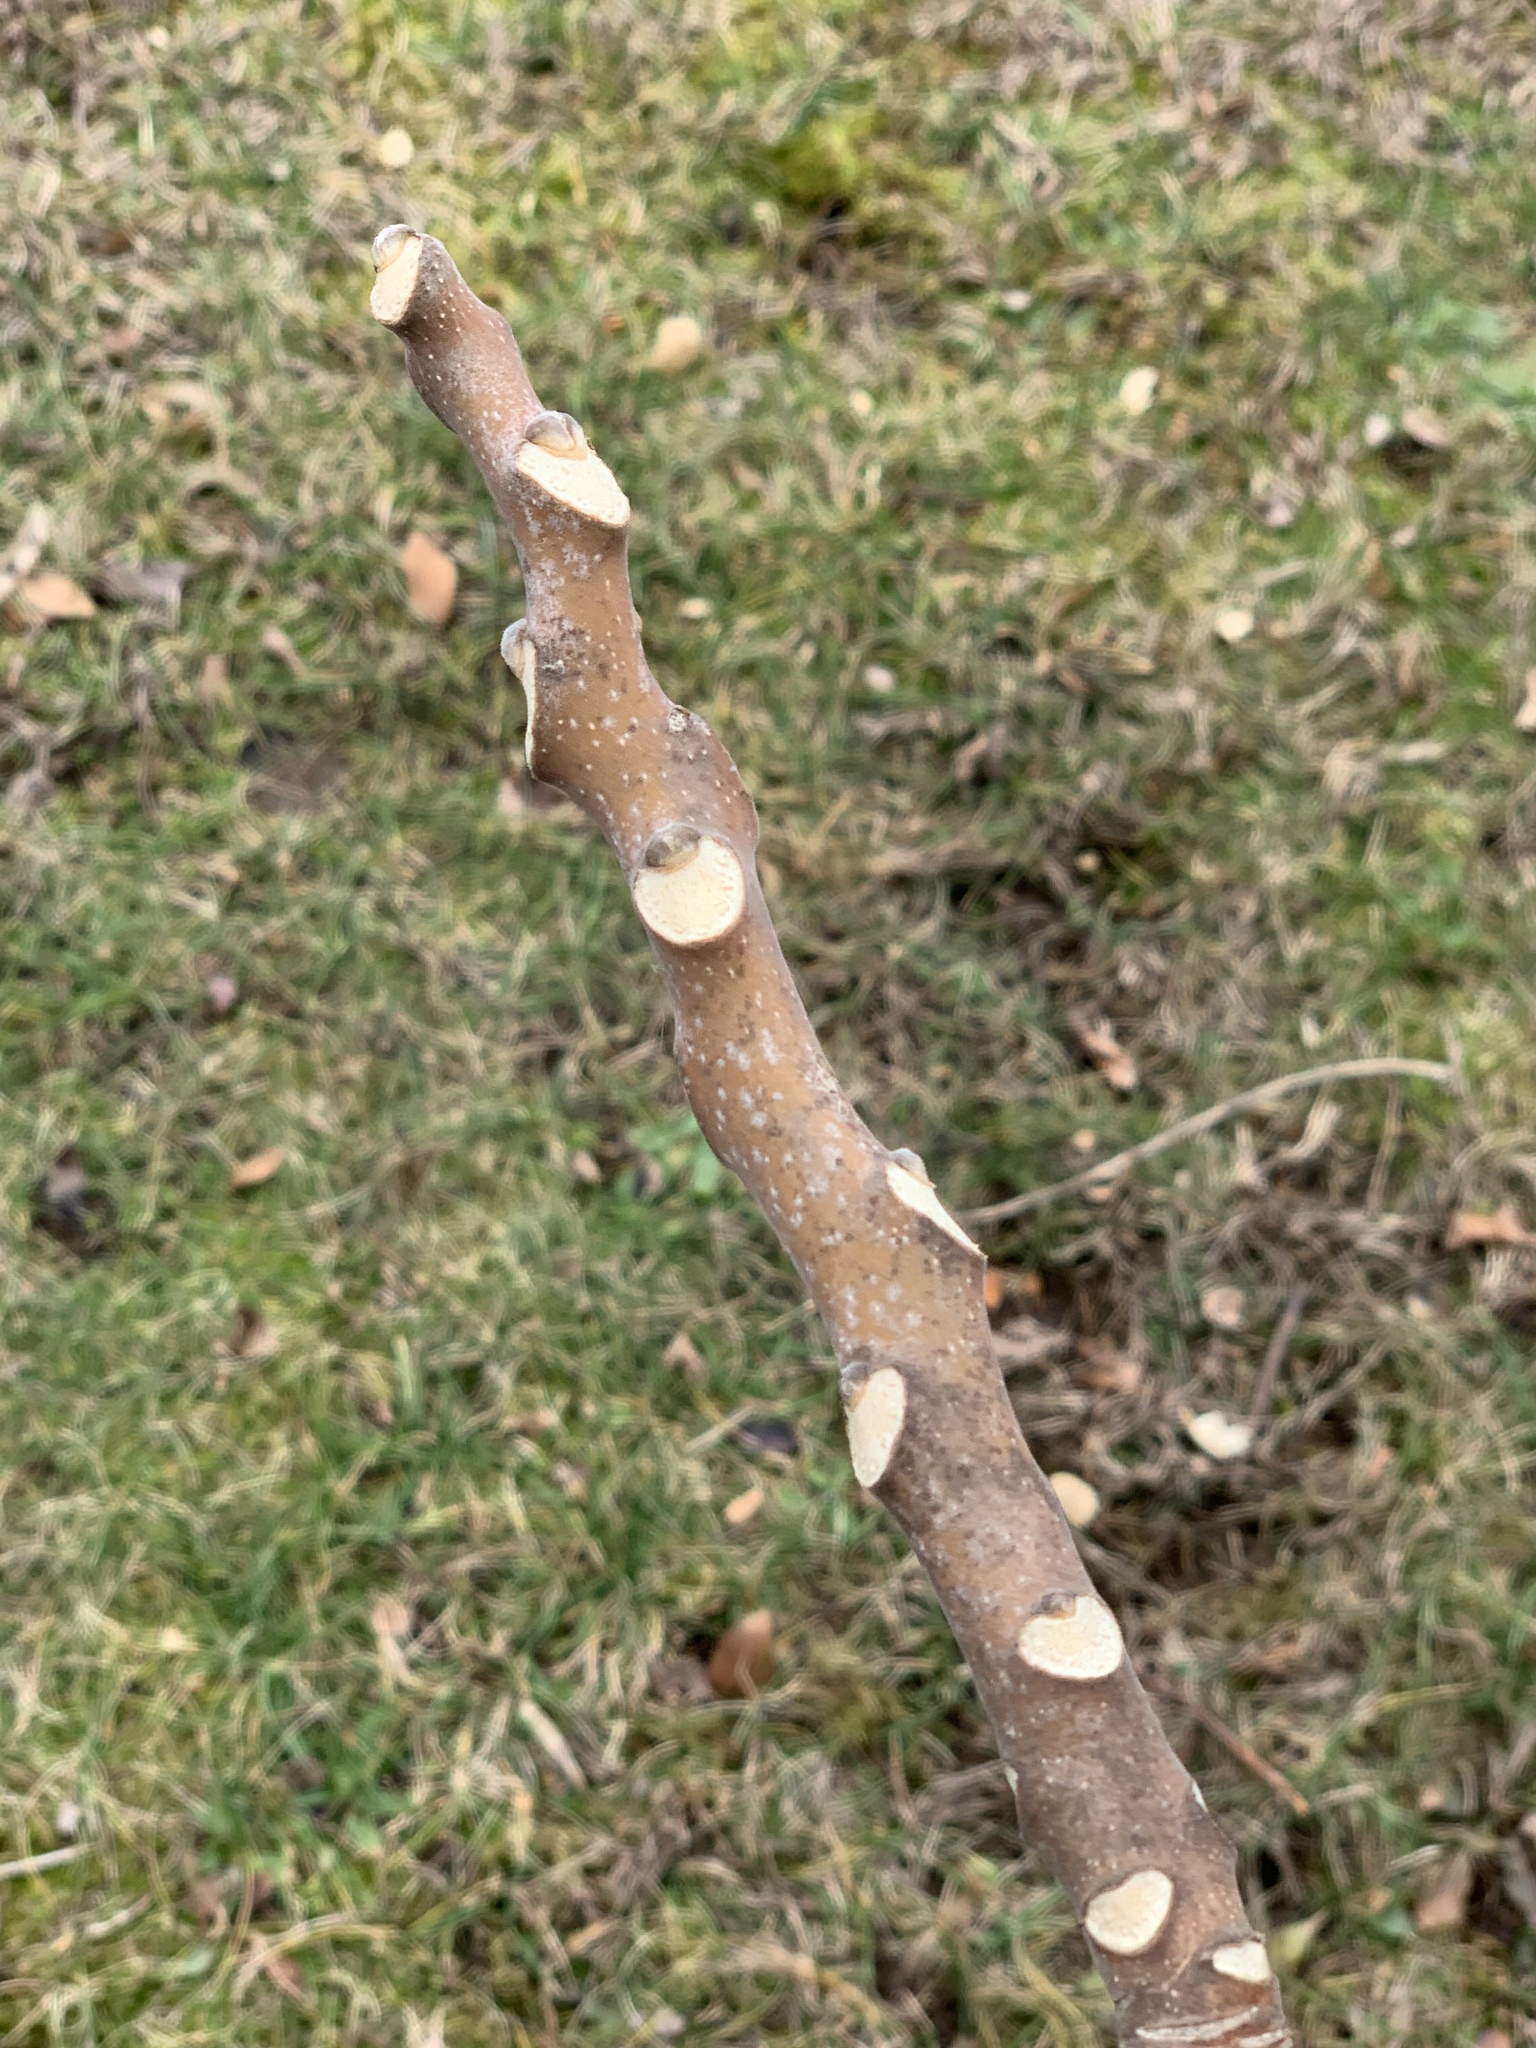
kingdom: Plantae
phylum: Tracheophyta
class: Magnoliopsida
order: Sapindales
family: Simaroubaceae
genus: Ailanthus
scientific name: Ailanthus altissima
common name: Tree-of-heaven
